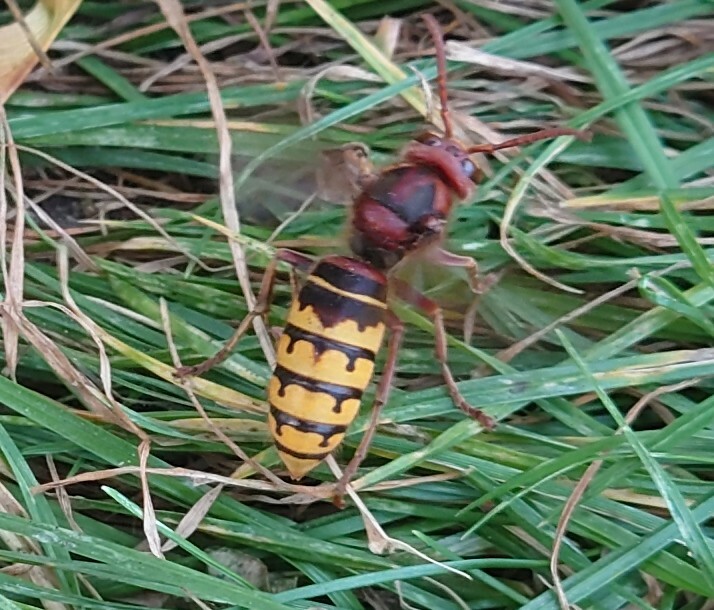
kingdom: Animalia
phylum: Arthropoda
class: Insecta
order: Hymenoptera
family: Vespidae
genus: Vespa
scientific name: Vespa crabro
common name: Hornet
